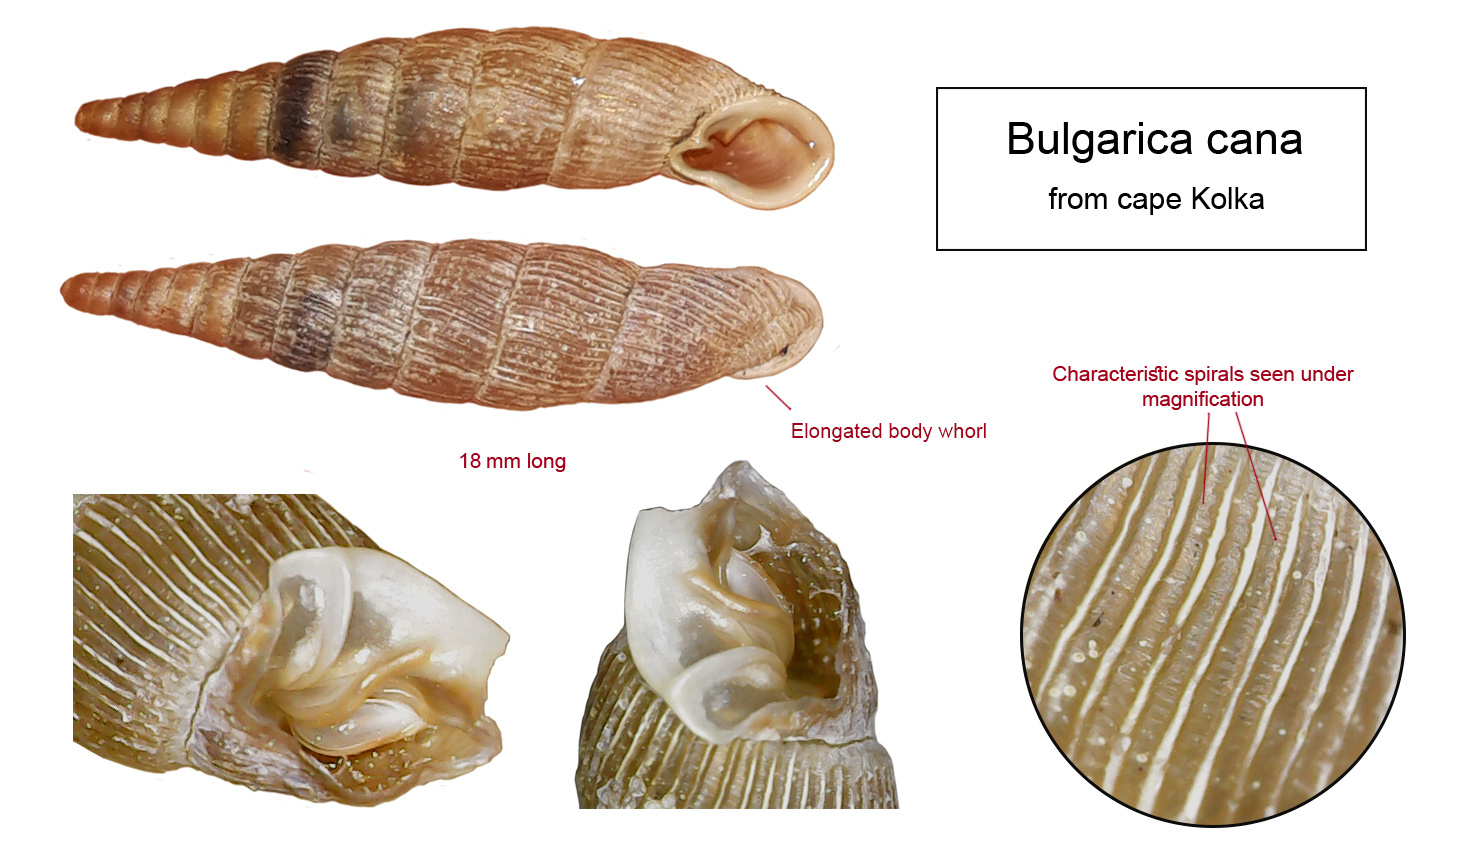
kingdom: Animalia
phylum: Mollusca
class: Gastropoda
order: Stylommatophora
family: Clausiliidae
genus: Strigillaria
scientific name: Strigillaria cana
